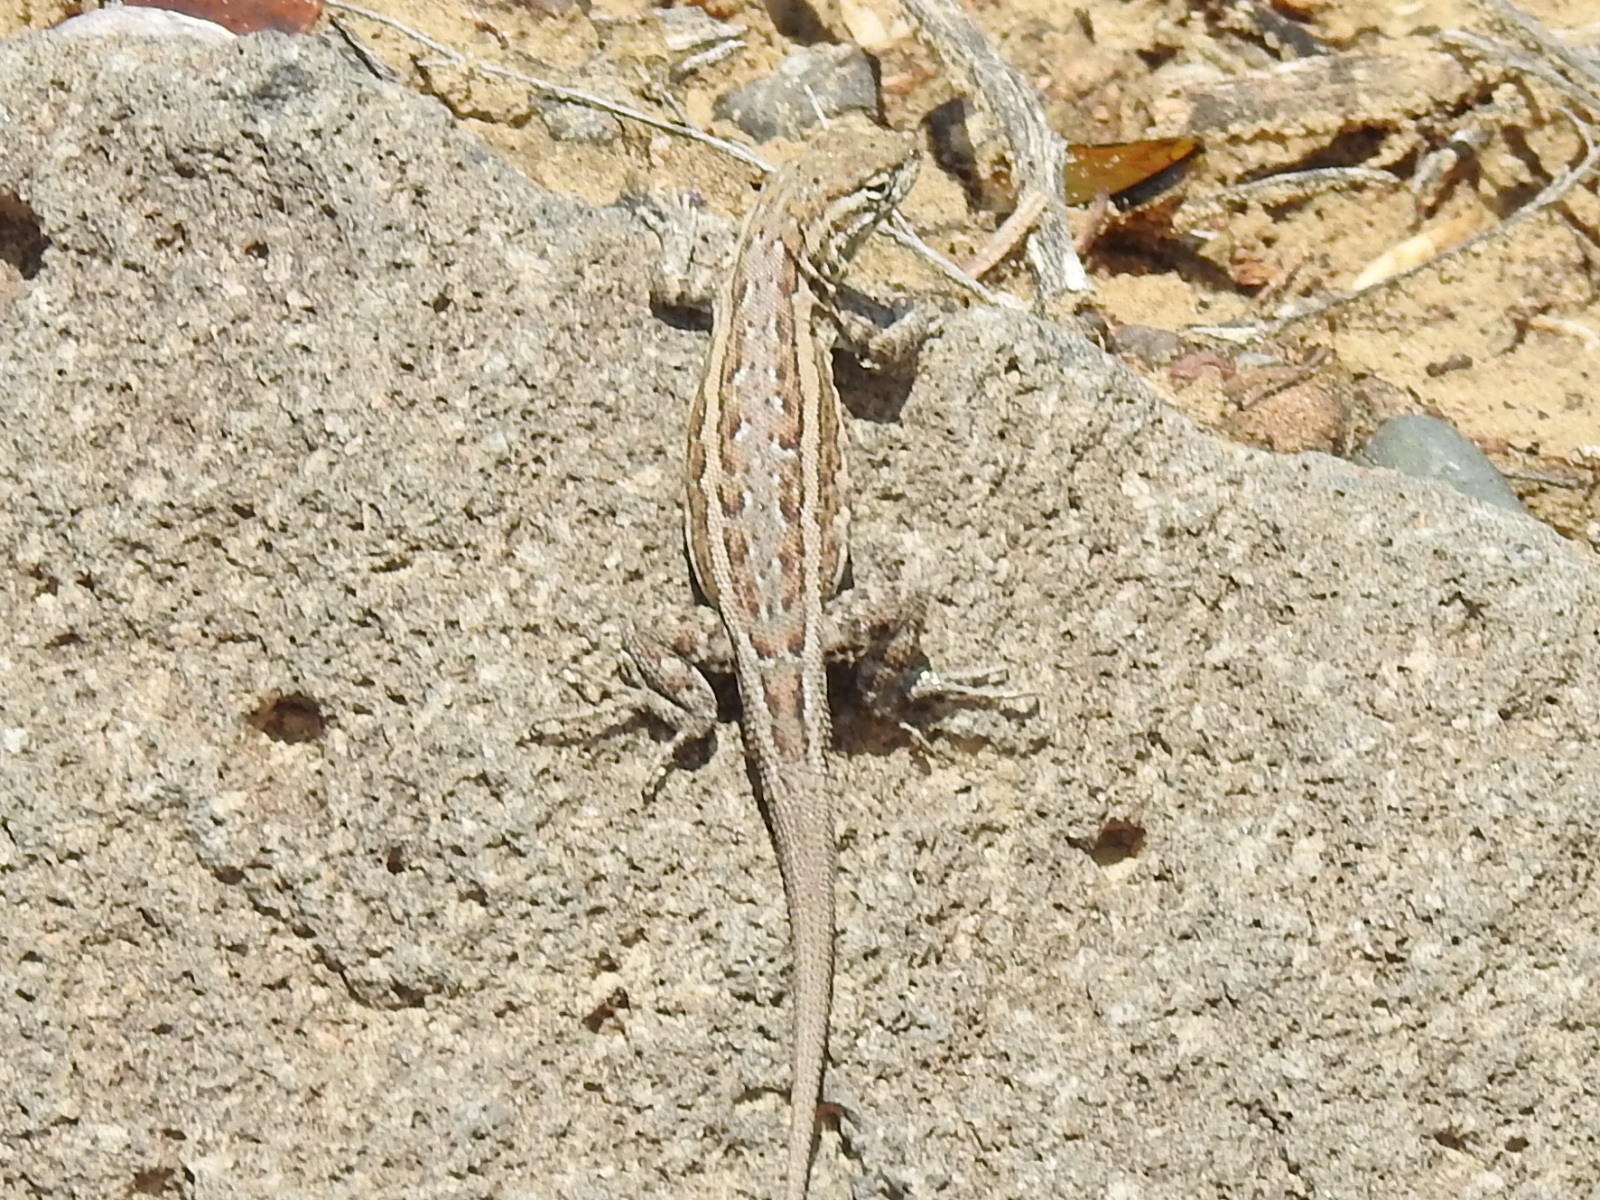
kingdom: Animalia
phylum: Chordata
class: Squamata
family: Phrynosomatidae
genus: Uta
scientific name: Uta stansburiana
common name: Side-blotched lizard
